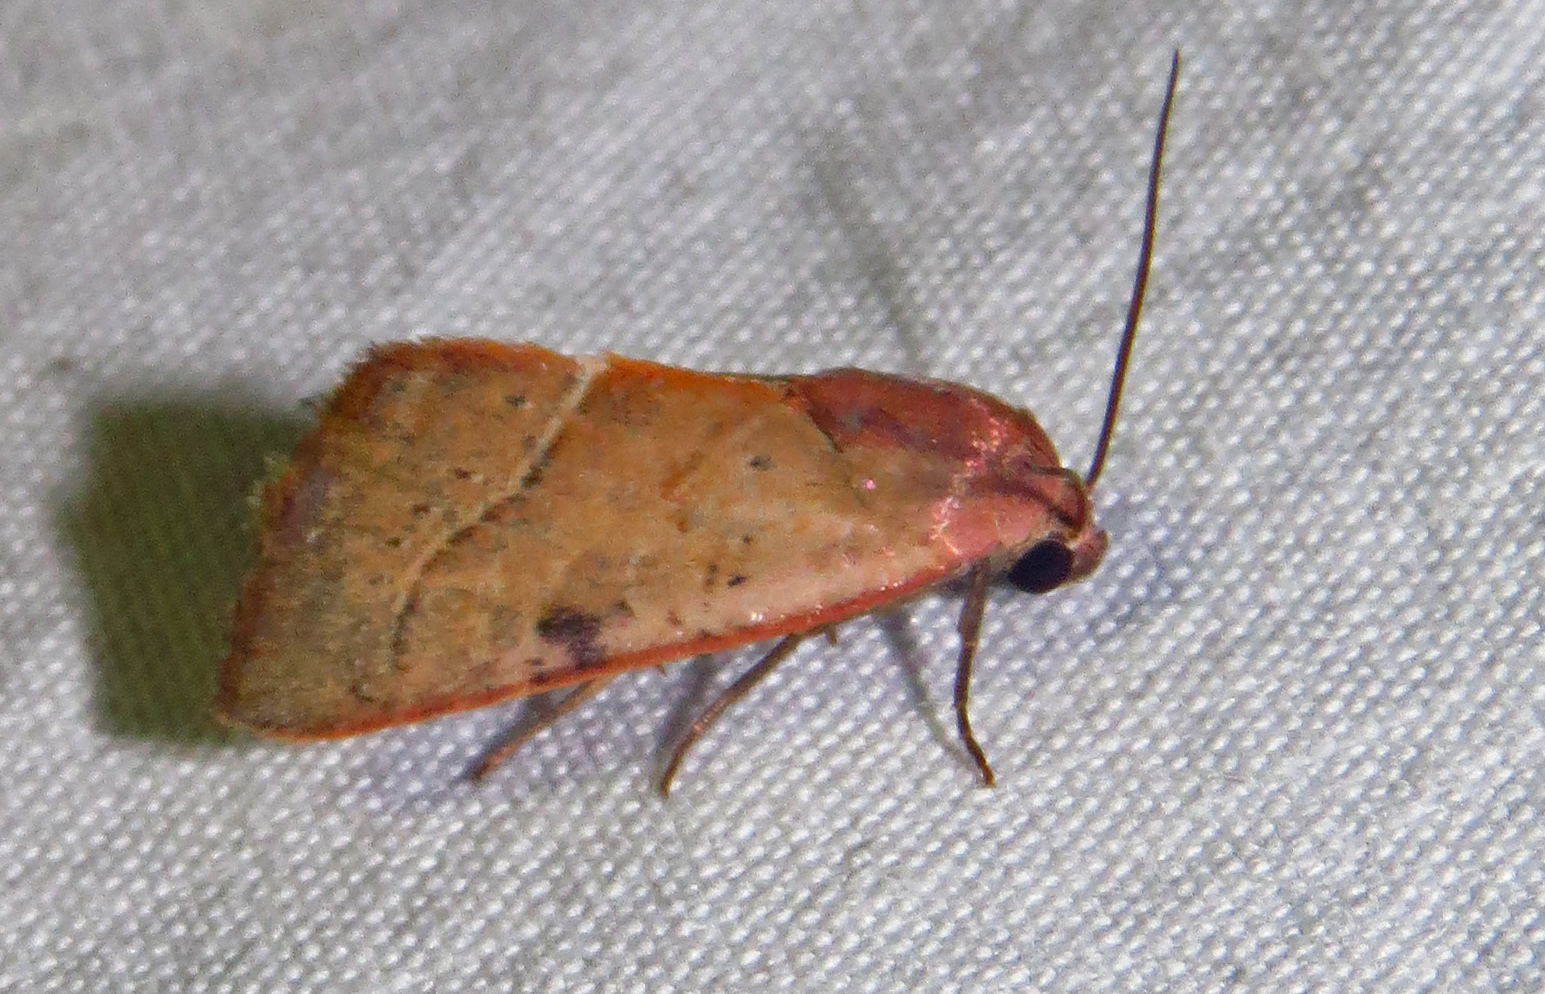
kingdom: Animalia
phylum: Arthropoda
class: Insecta
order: Lepidoptera
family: Noctuidae
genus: Galgula
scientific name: Galgula partita
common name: Wedgeling
